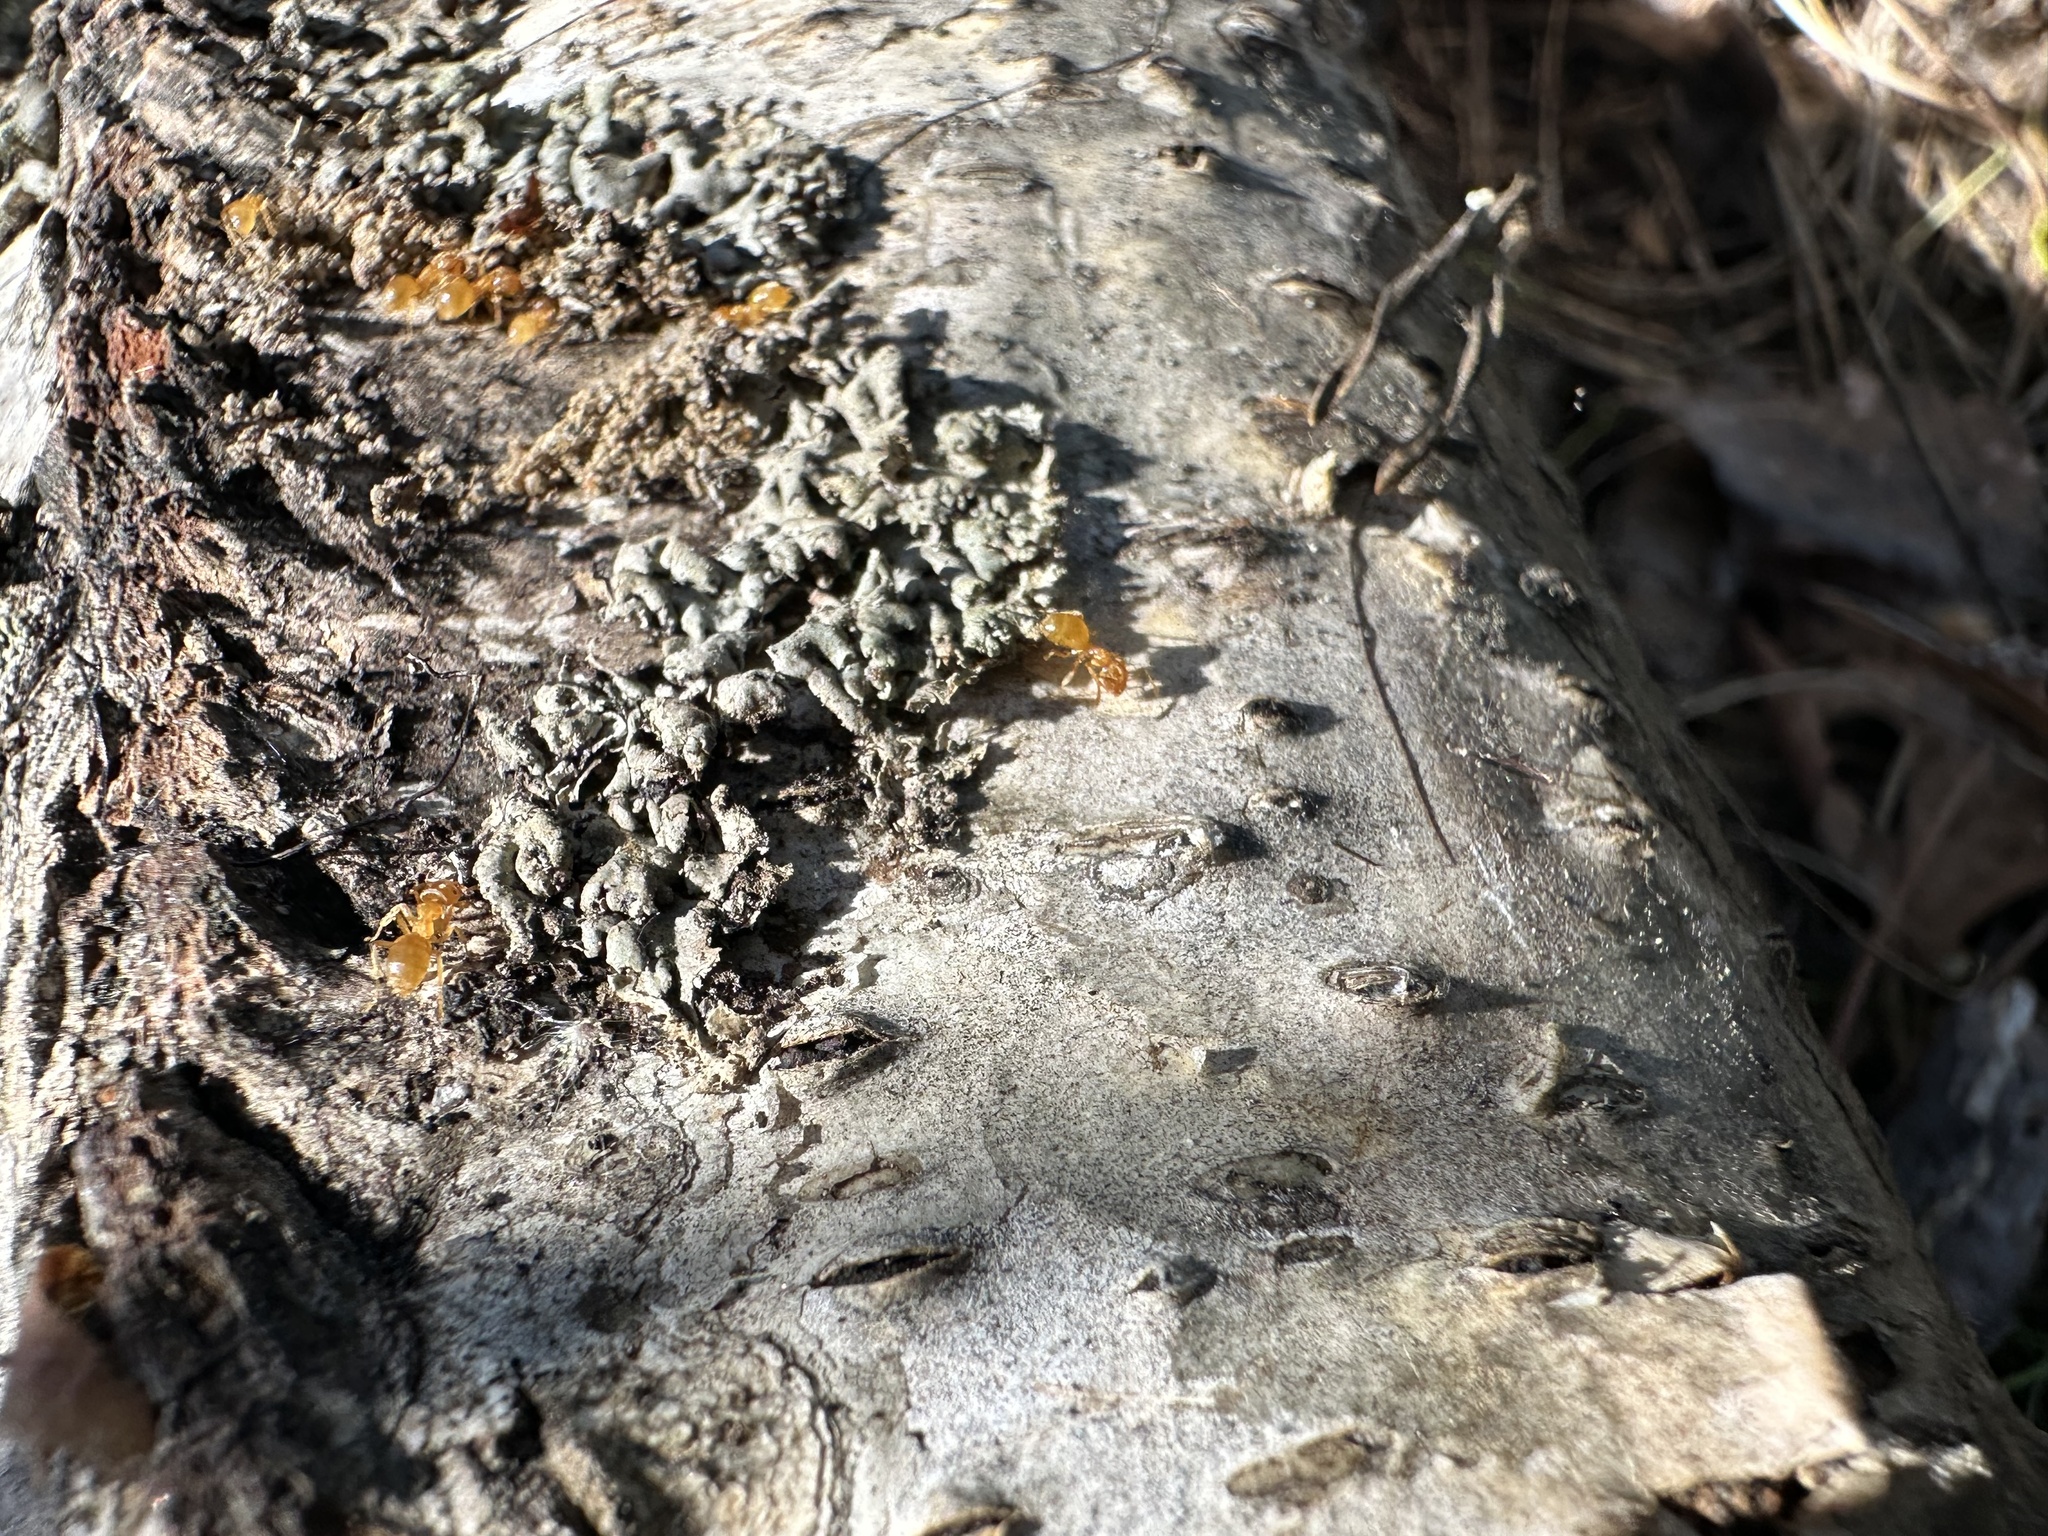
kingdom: Animalia
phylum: Arthropoda
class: Insecta
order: Hymenoptera
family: Formicidae
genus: Lasius
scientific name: Lasius flavus
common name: Blond field ant
